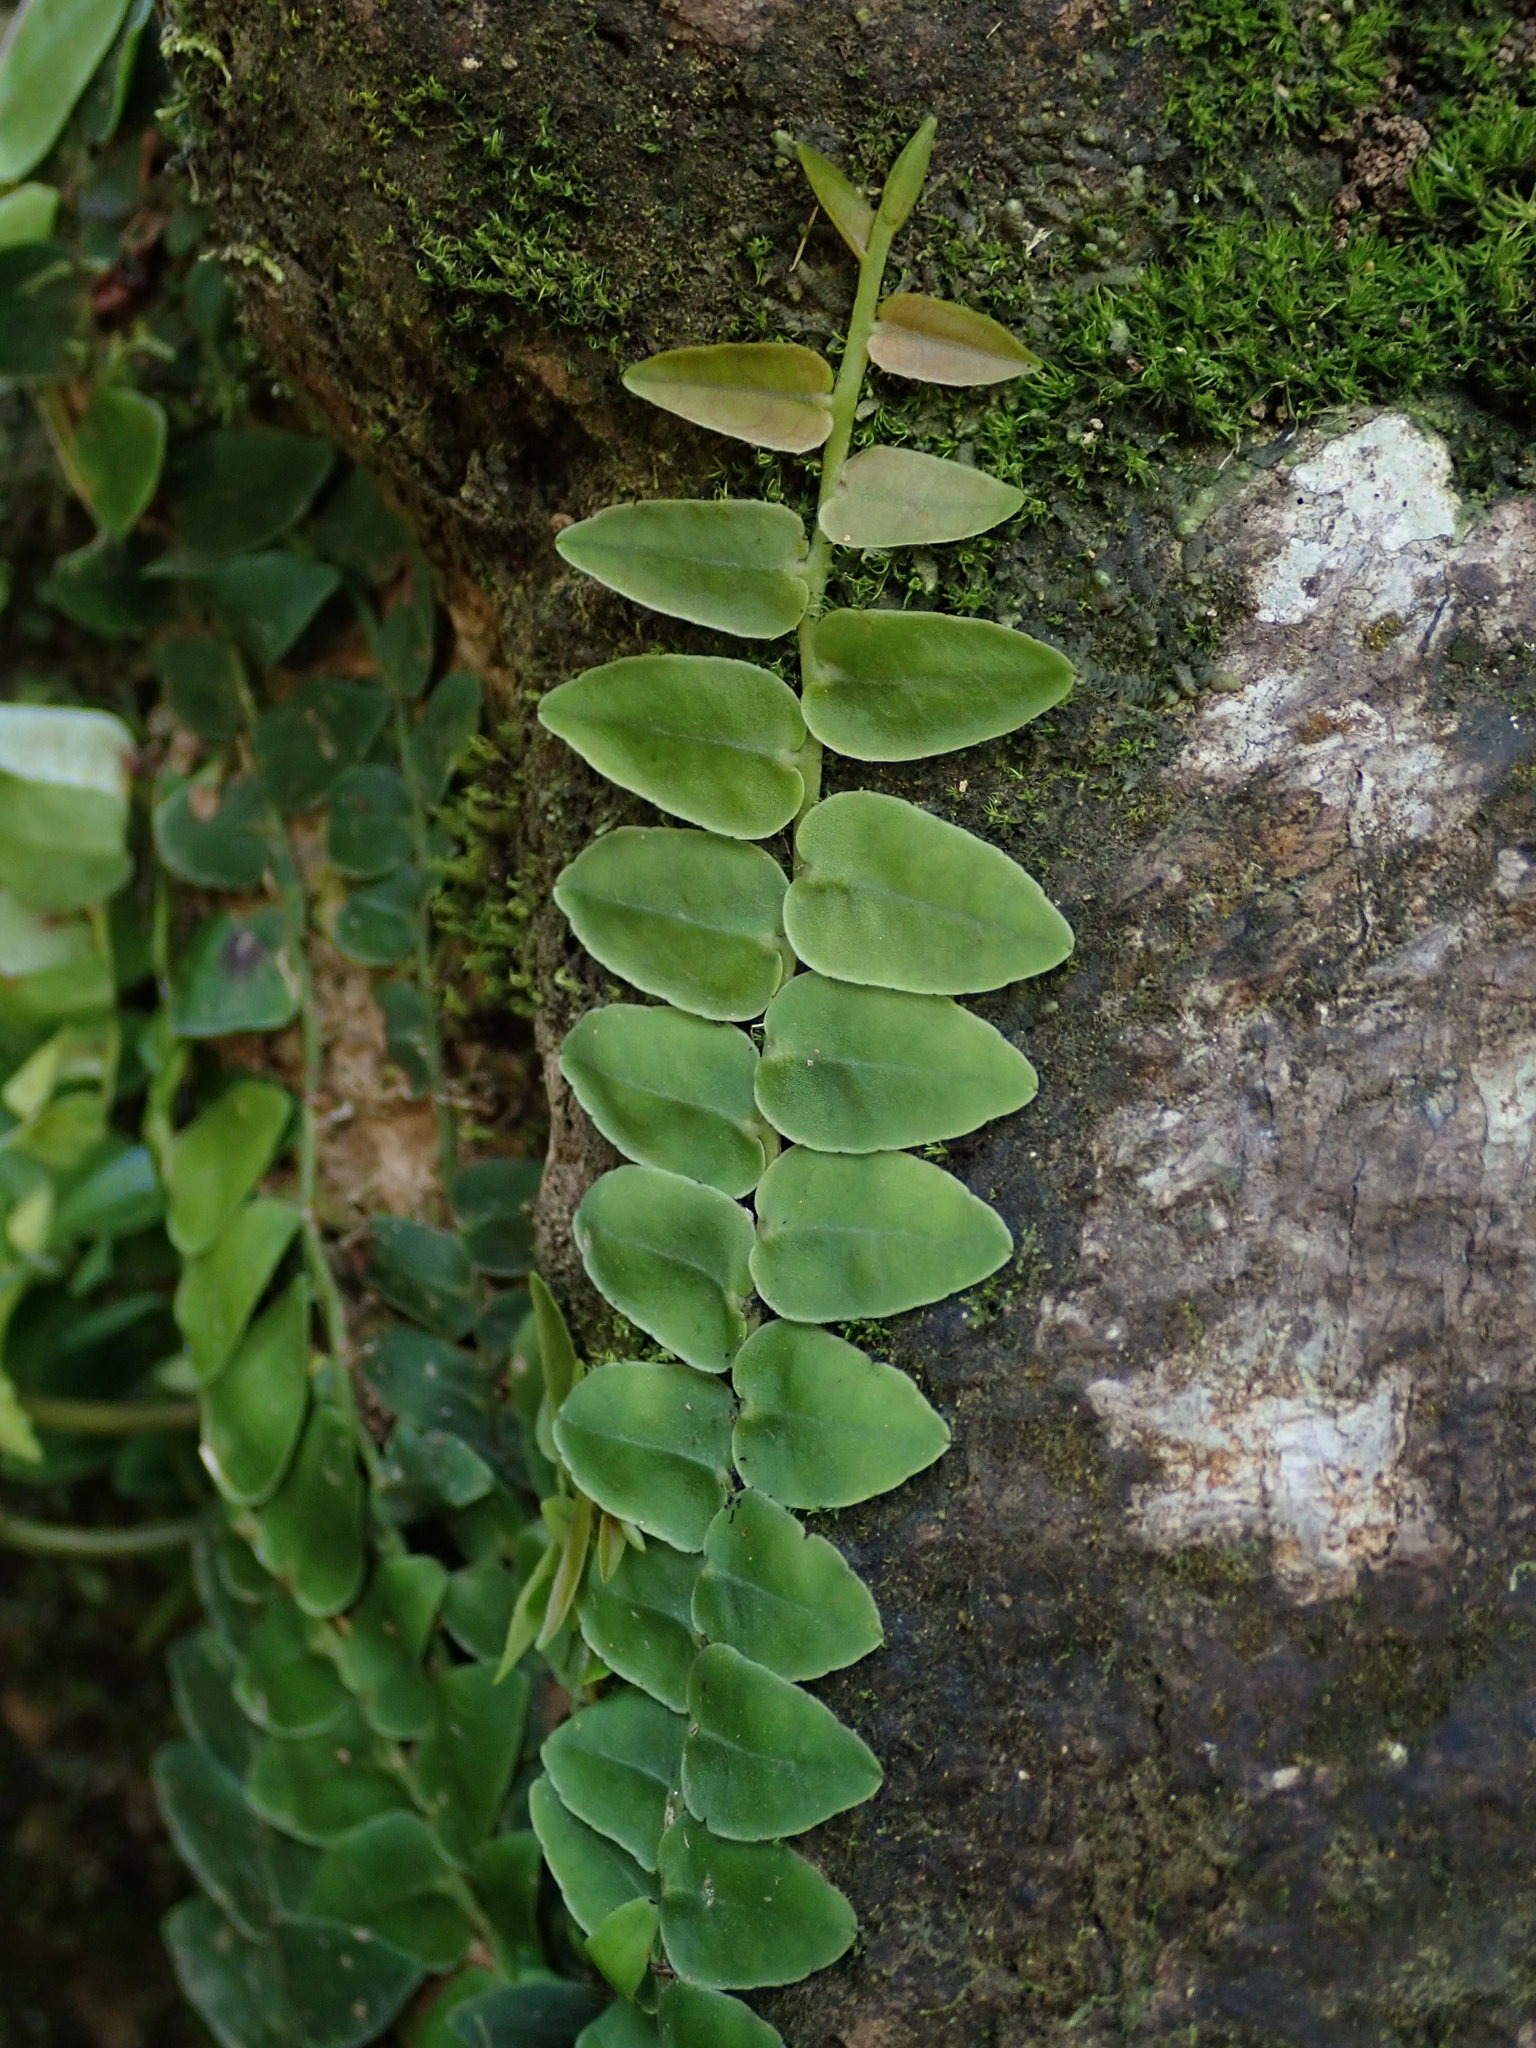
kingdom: Plantae
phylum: Tracheophyta
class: Magnoliopsida
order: Ericales
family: Marcgraviaceae
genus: Marcgravia
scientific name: Marcgravia rectiflora
